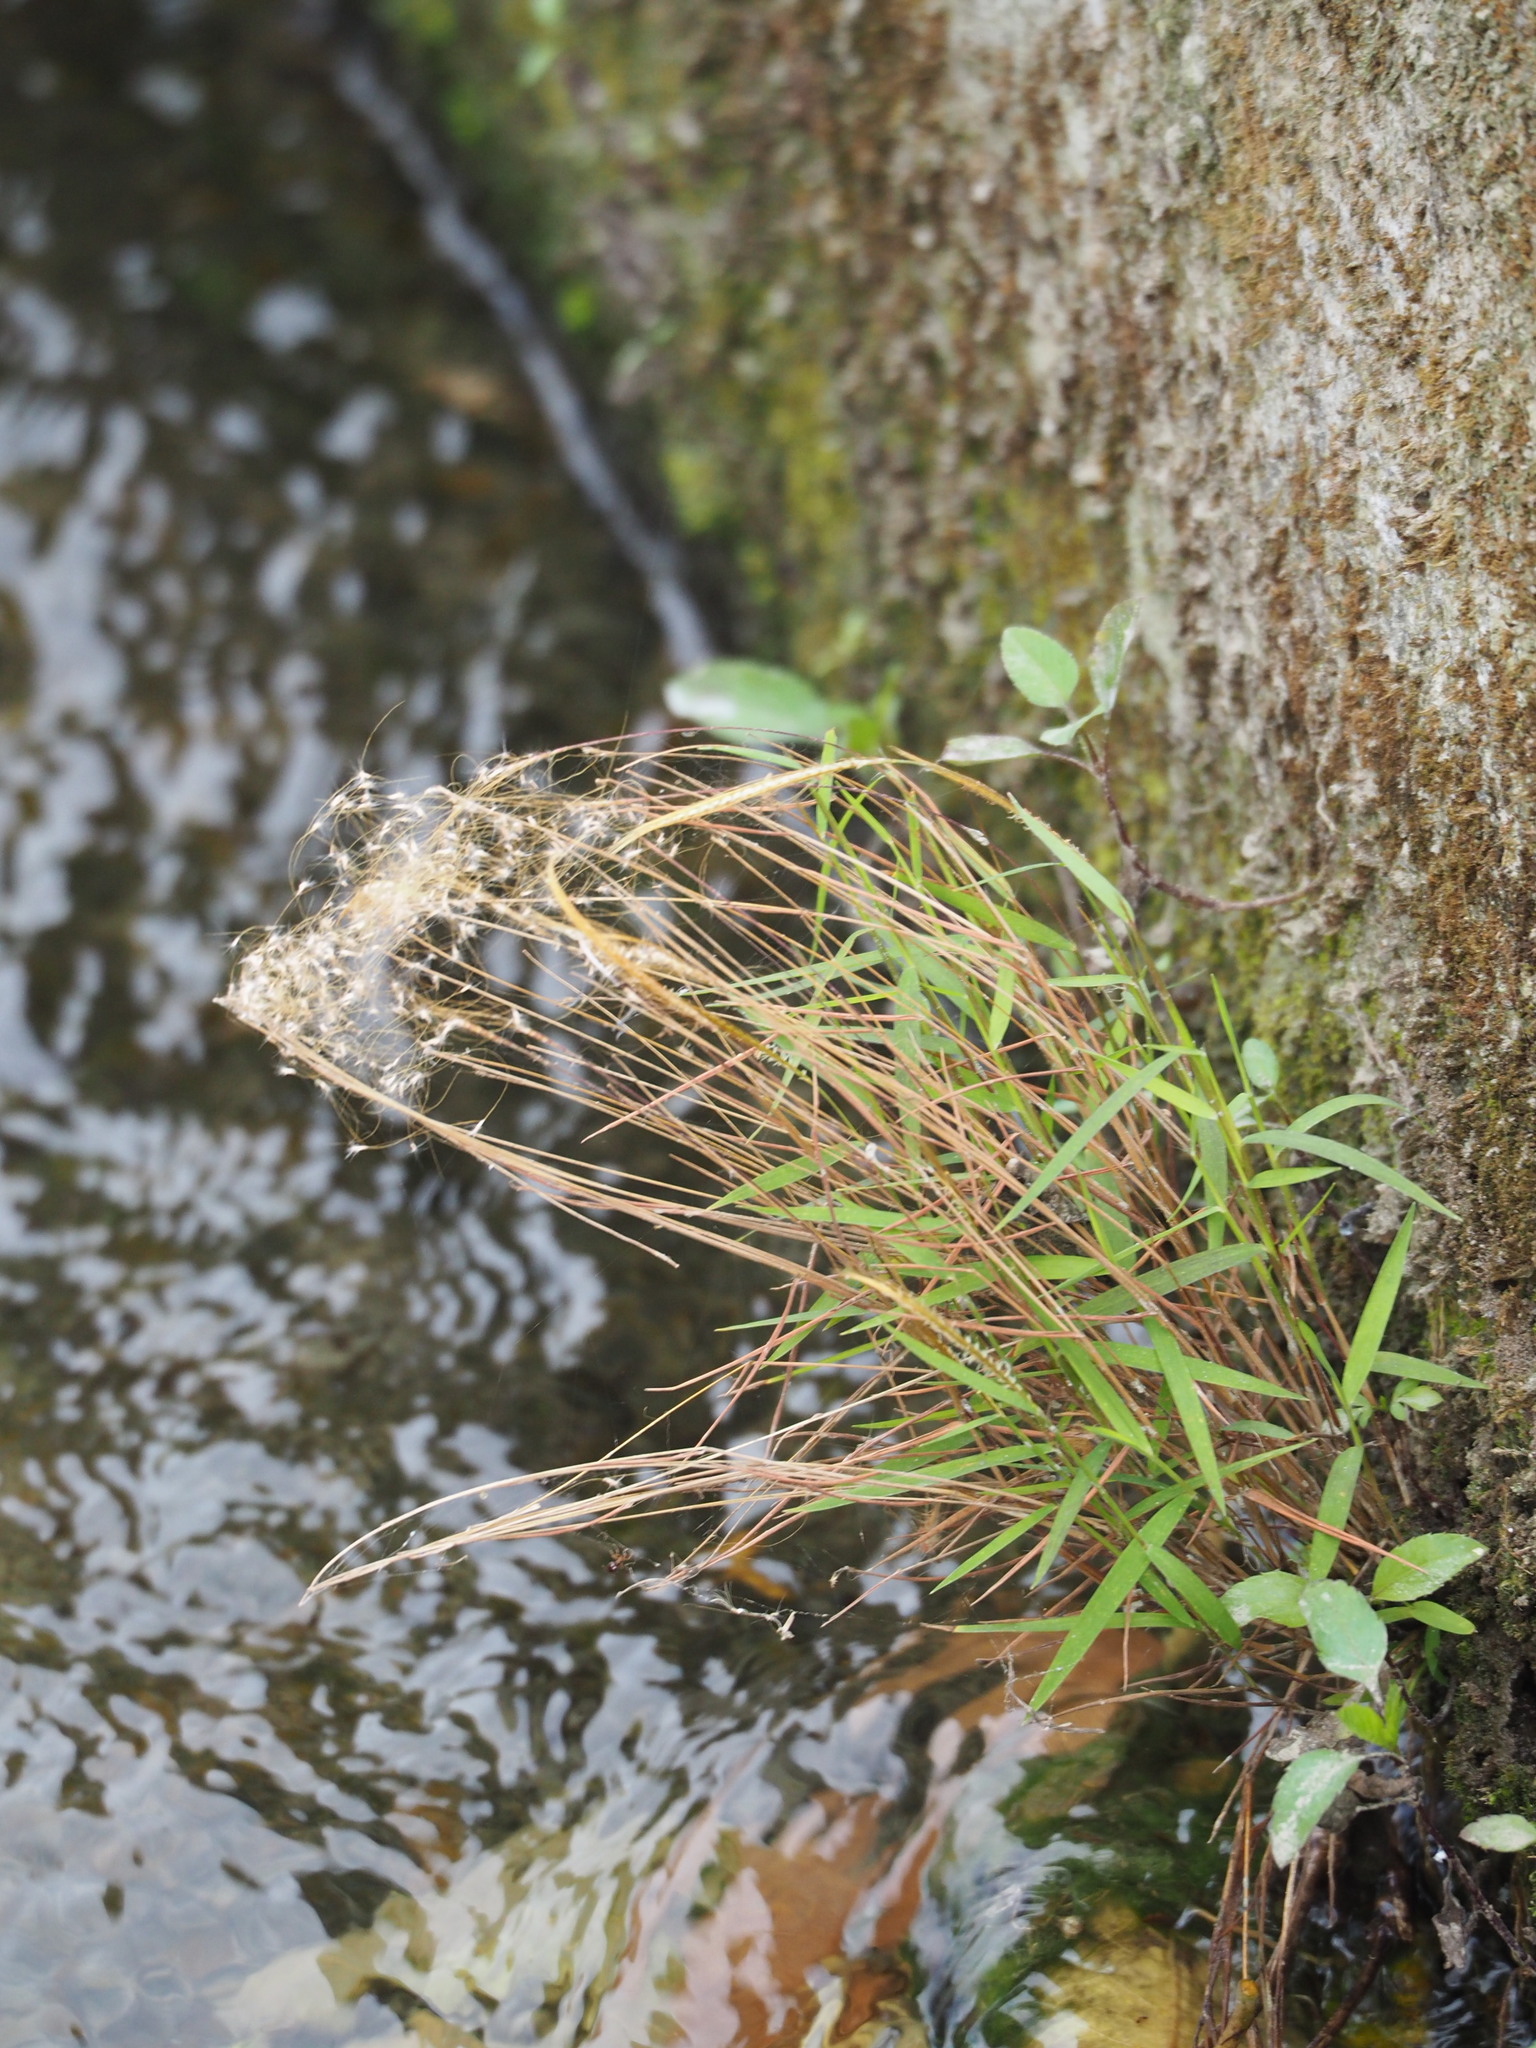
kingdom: Plantae
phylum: Tracheophyta
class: Liliopsida
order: Poales
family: Poaceae
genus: Pogonatherum
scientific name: Pogonatherum crinitum
